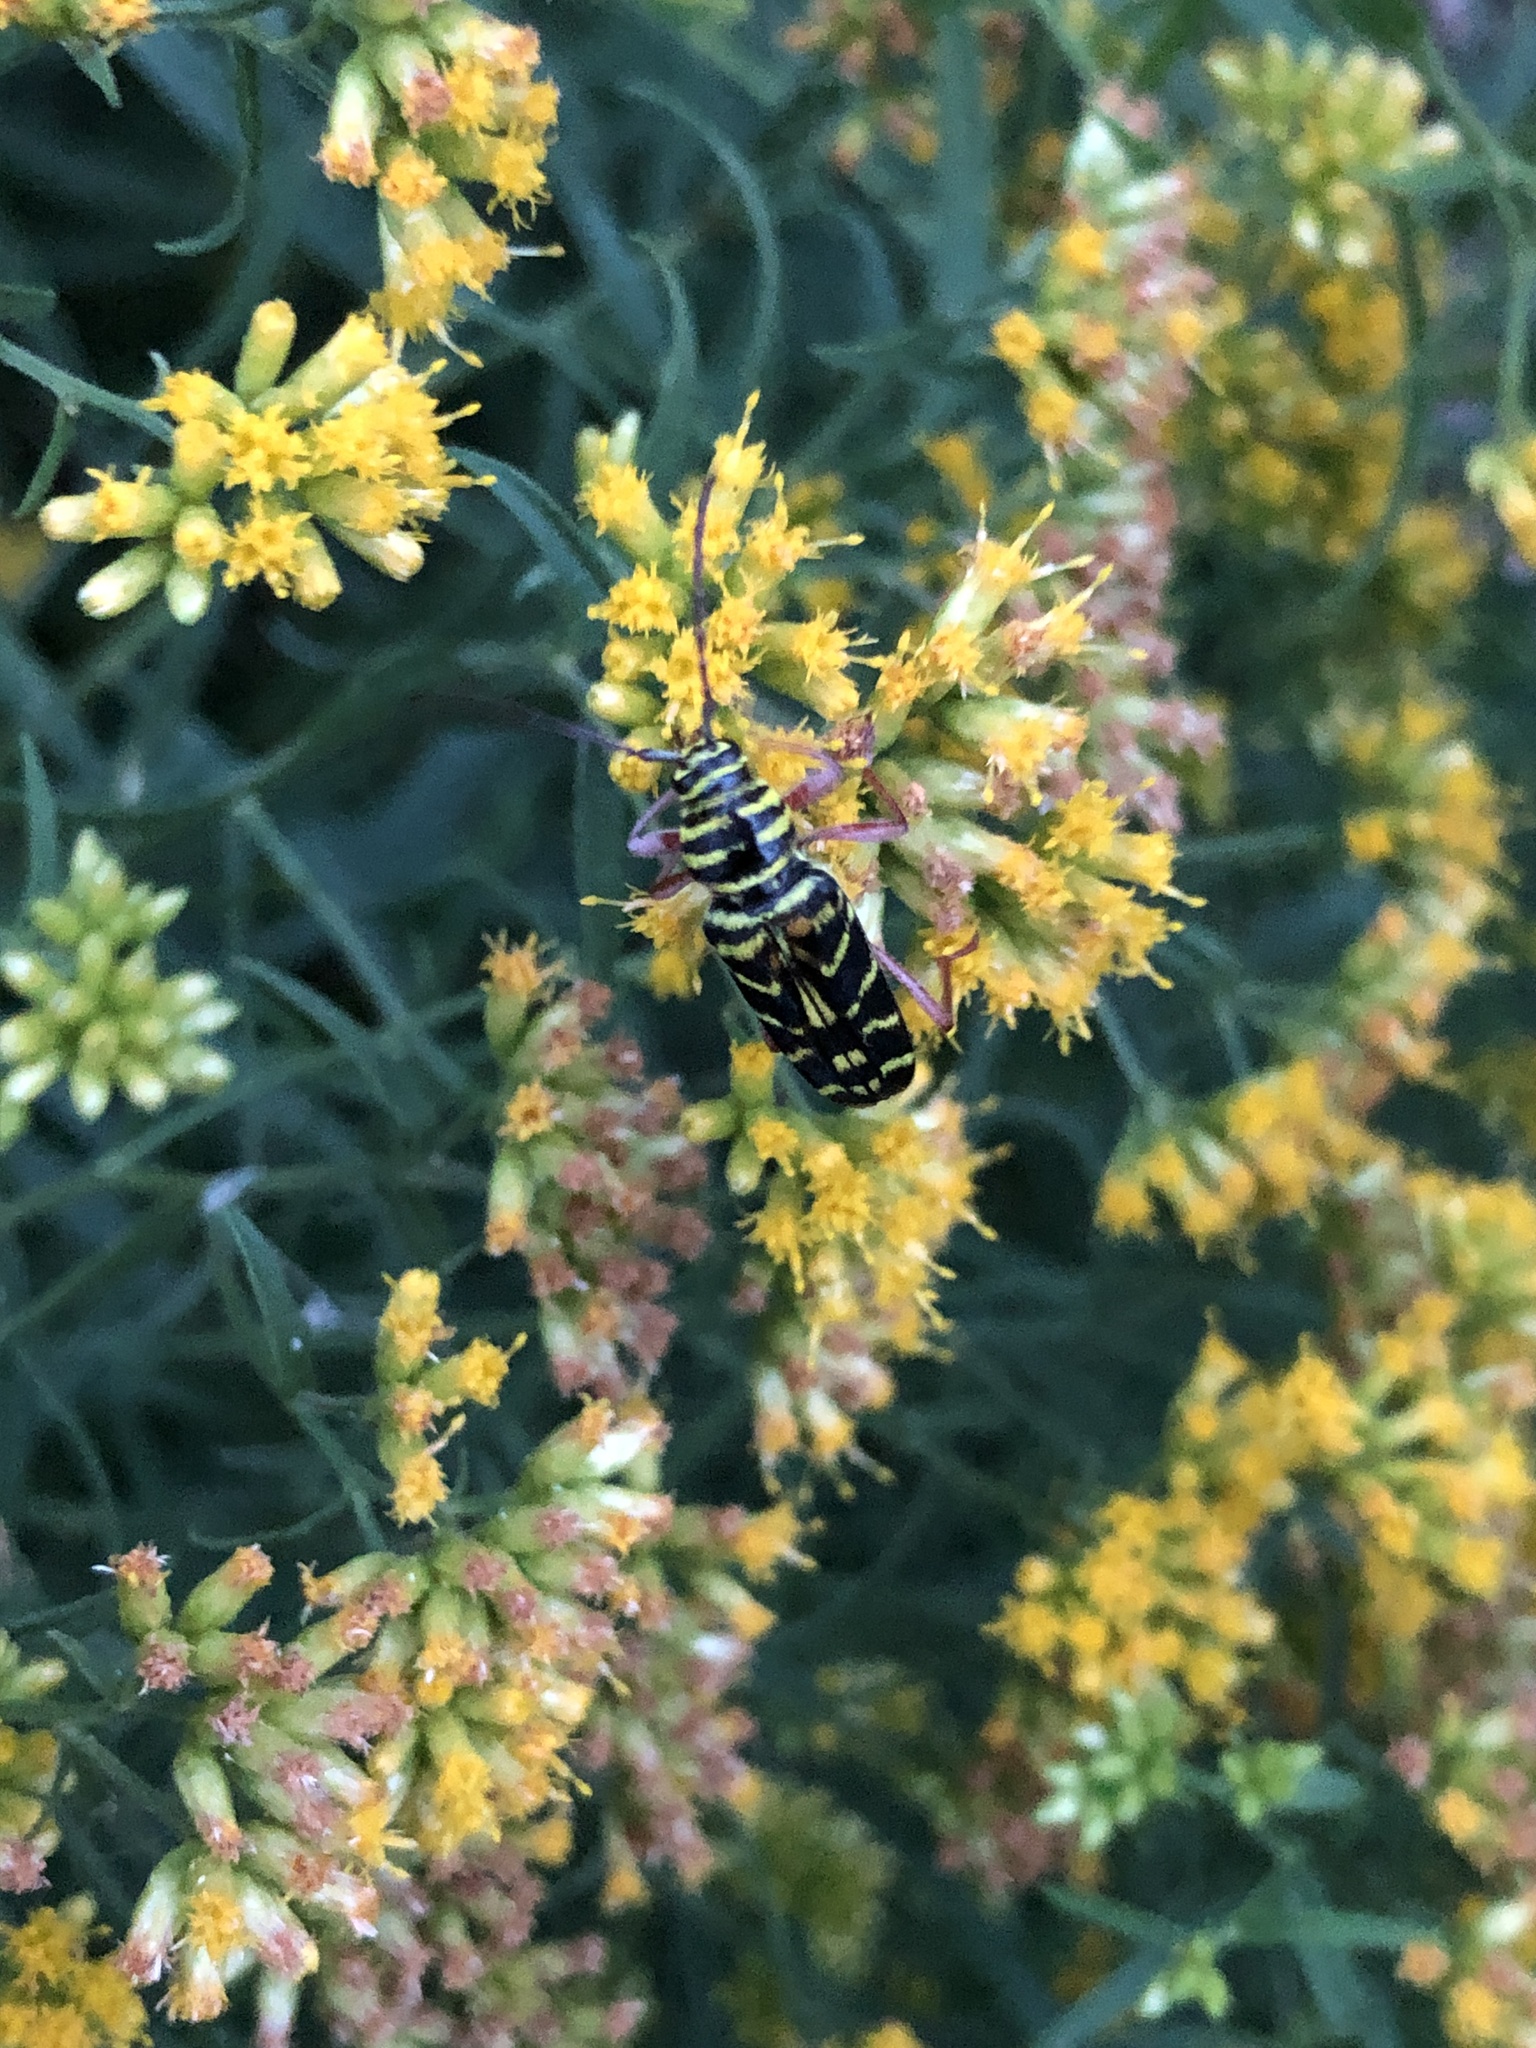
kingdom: Animalia
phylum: Arthropoda
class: Insecta
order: Coleoptera
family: Cerambycidae
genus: Megacyllene
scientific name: Megacyllene robiniae
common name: Locust borer
